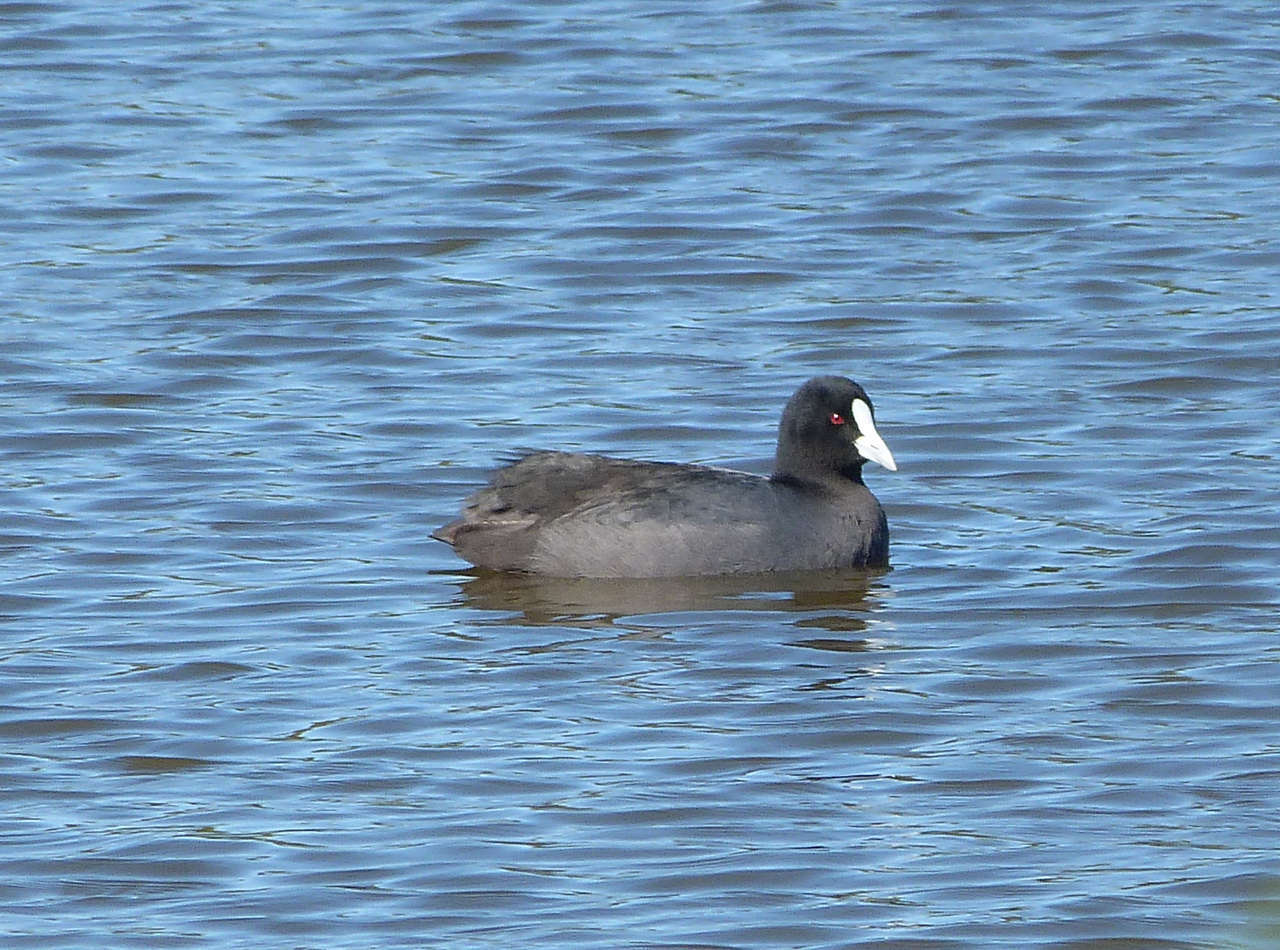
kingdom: Animalia
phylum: Chordata
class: Aves
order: Gruiformes
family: Rallidae
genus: Fulica
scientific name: Fulica atra
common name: Eurasian coot
